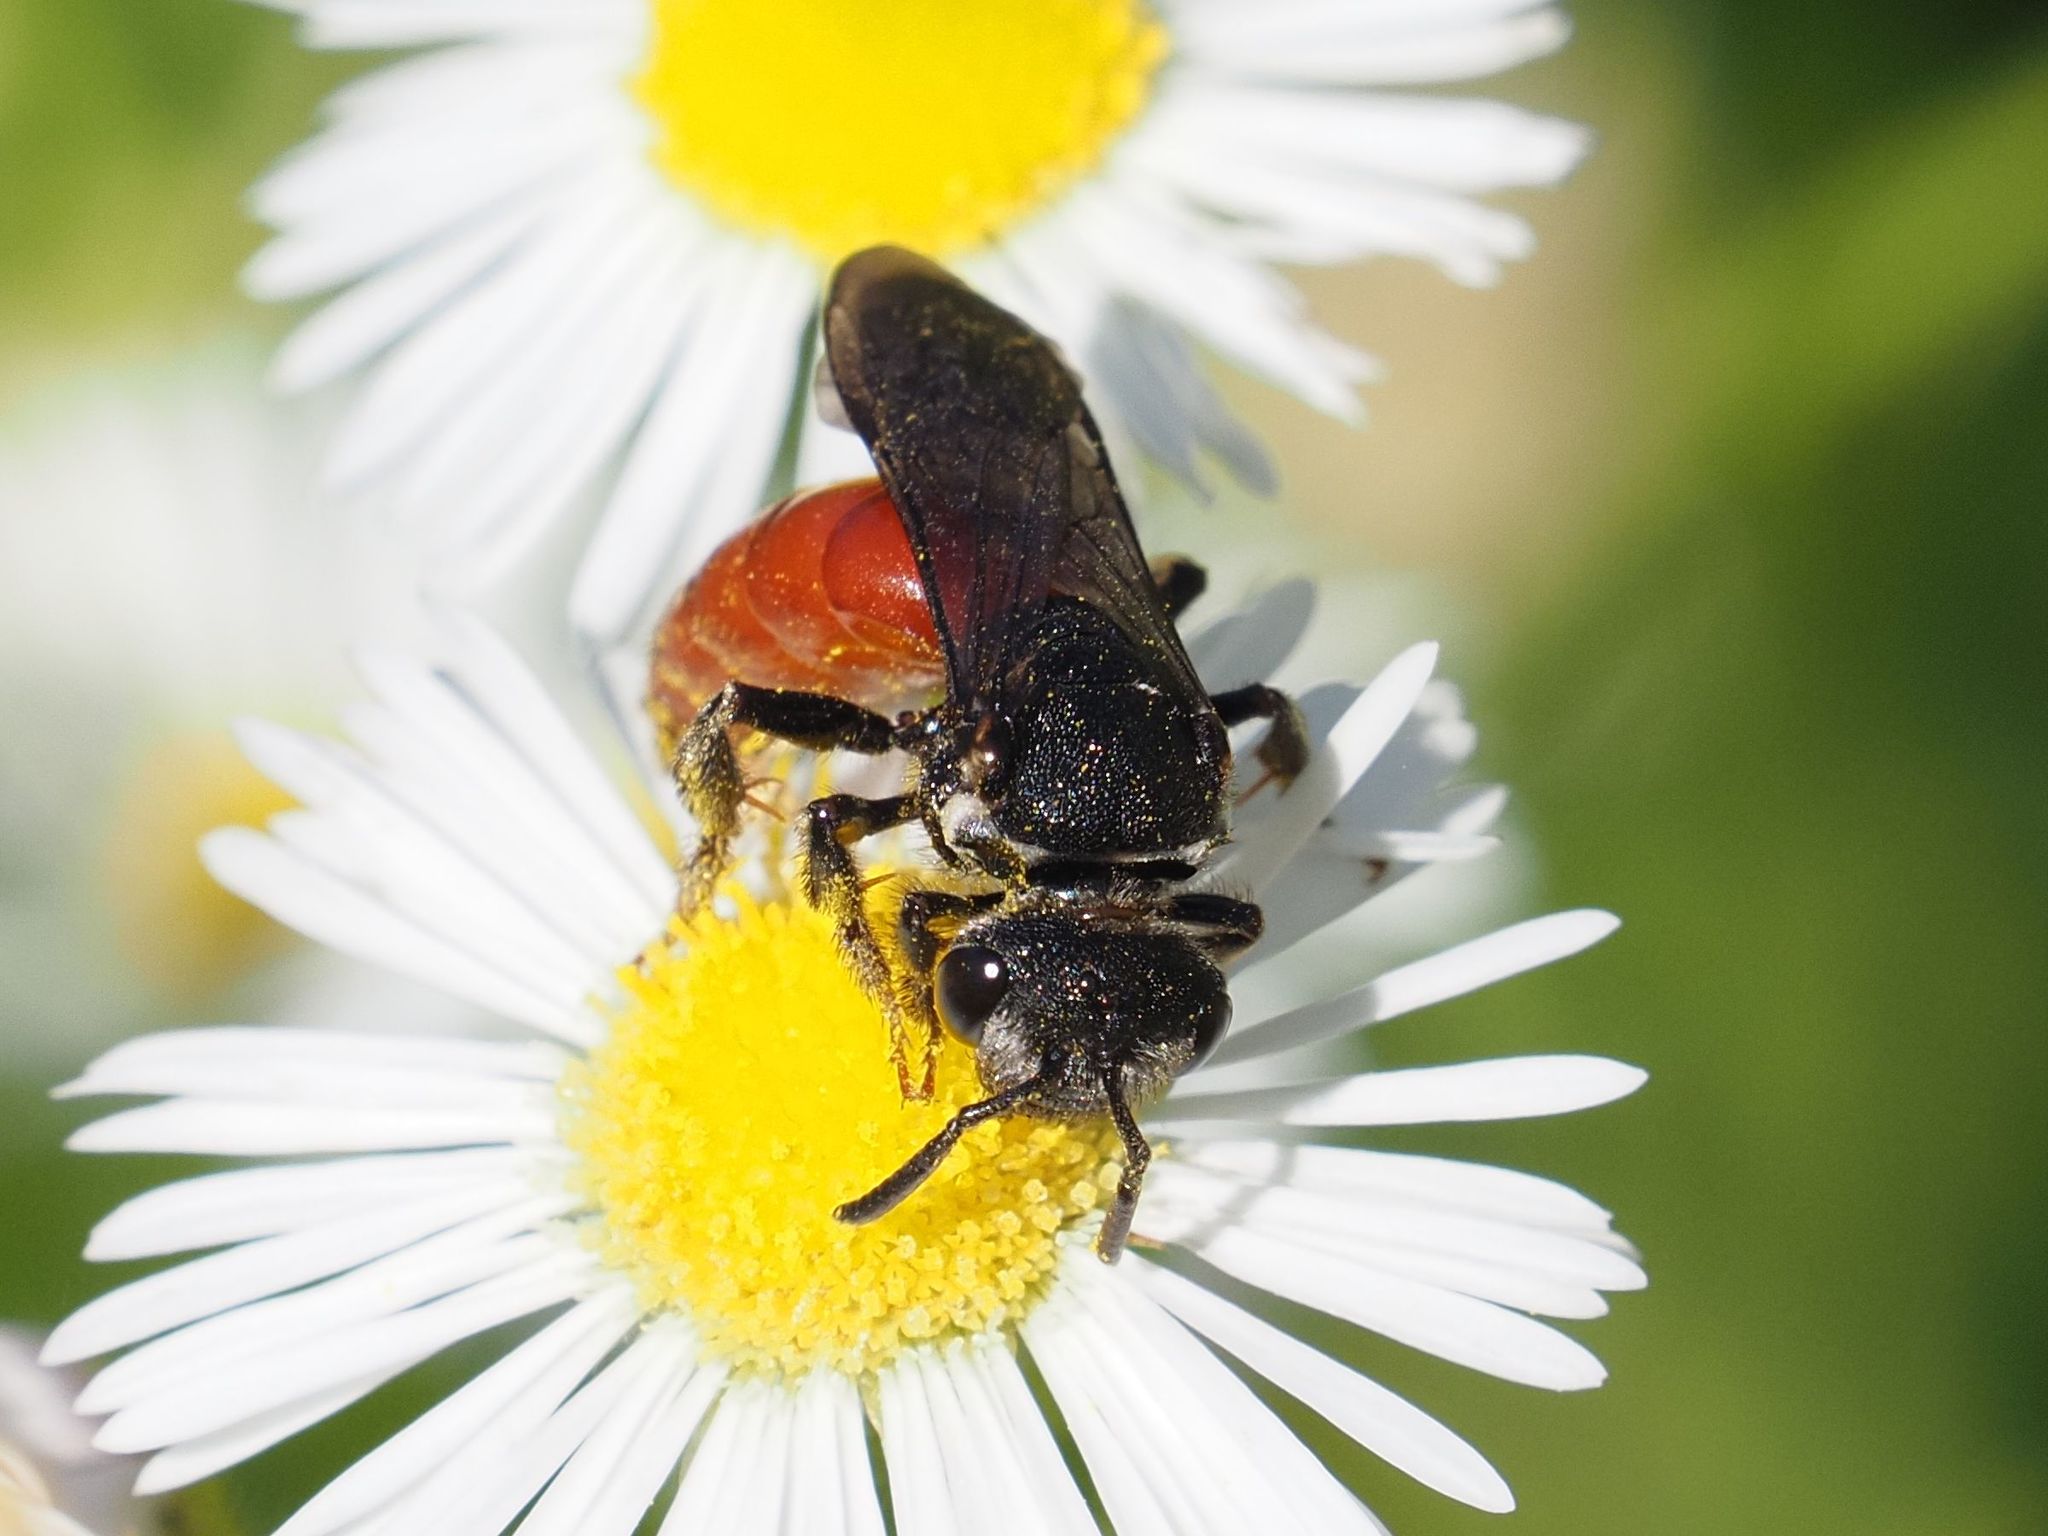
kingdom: Animalia
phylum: Arthropoda
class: Insecta
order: Hymenoptera
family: Halictidae
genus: Sphecodes
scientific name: Sphecodes albilabris
